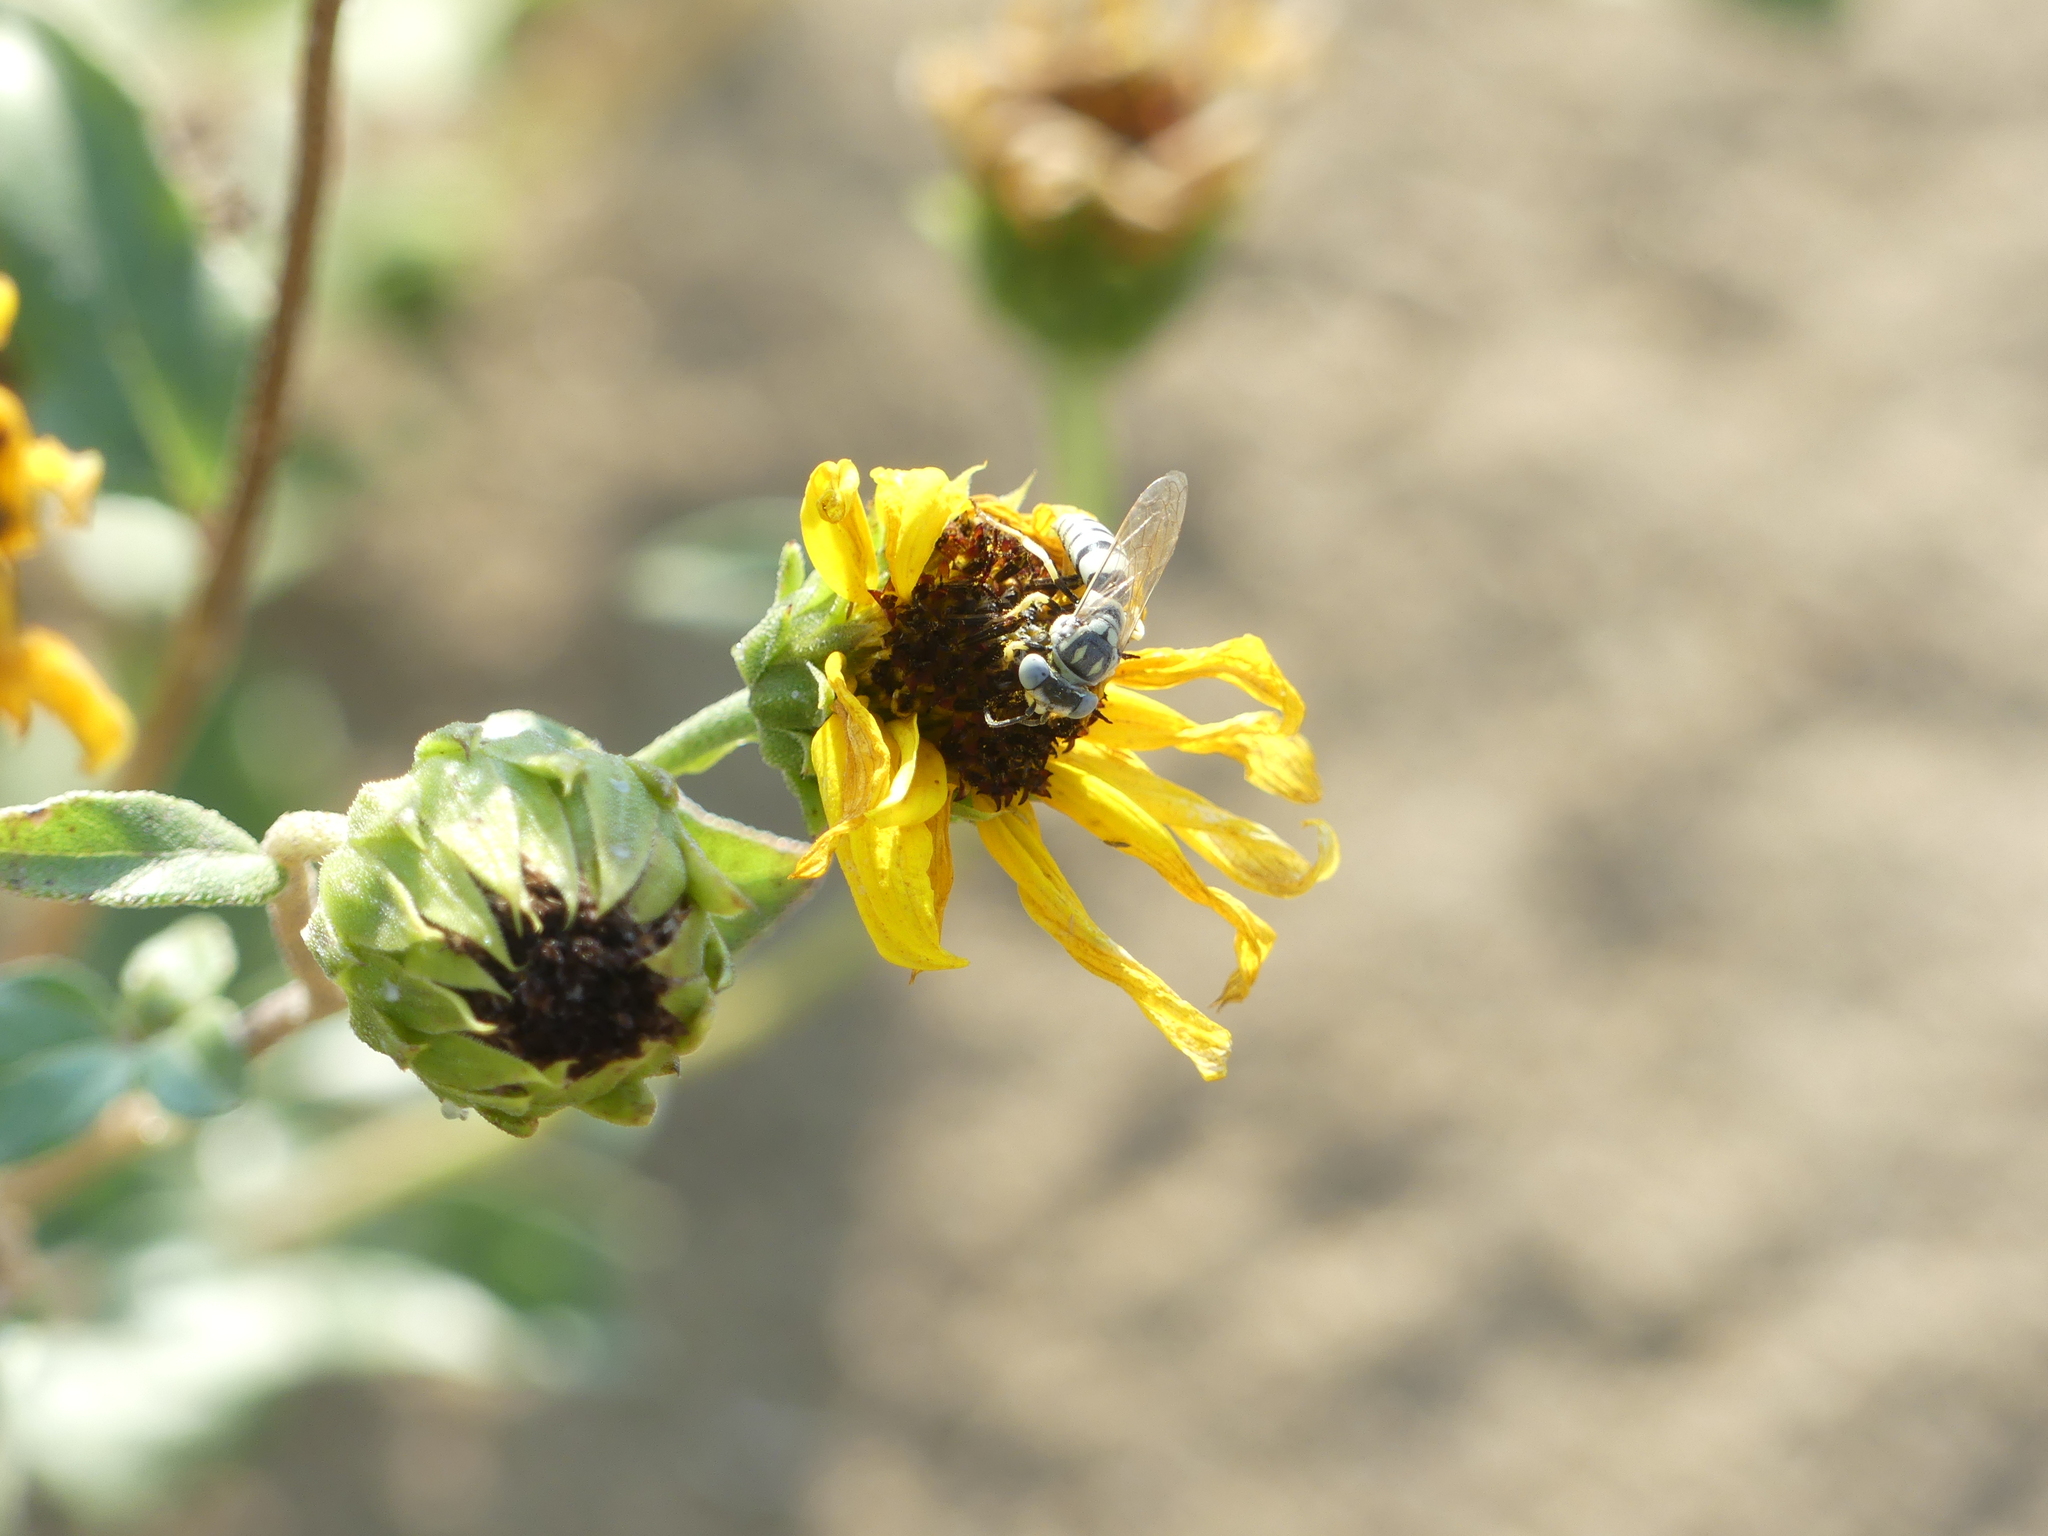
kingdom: Animalia
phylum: Arthropoda
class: Insecta
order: Hymenoptera
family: Crabronidae
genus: Microbembex
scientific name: Microbembex monodonta
